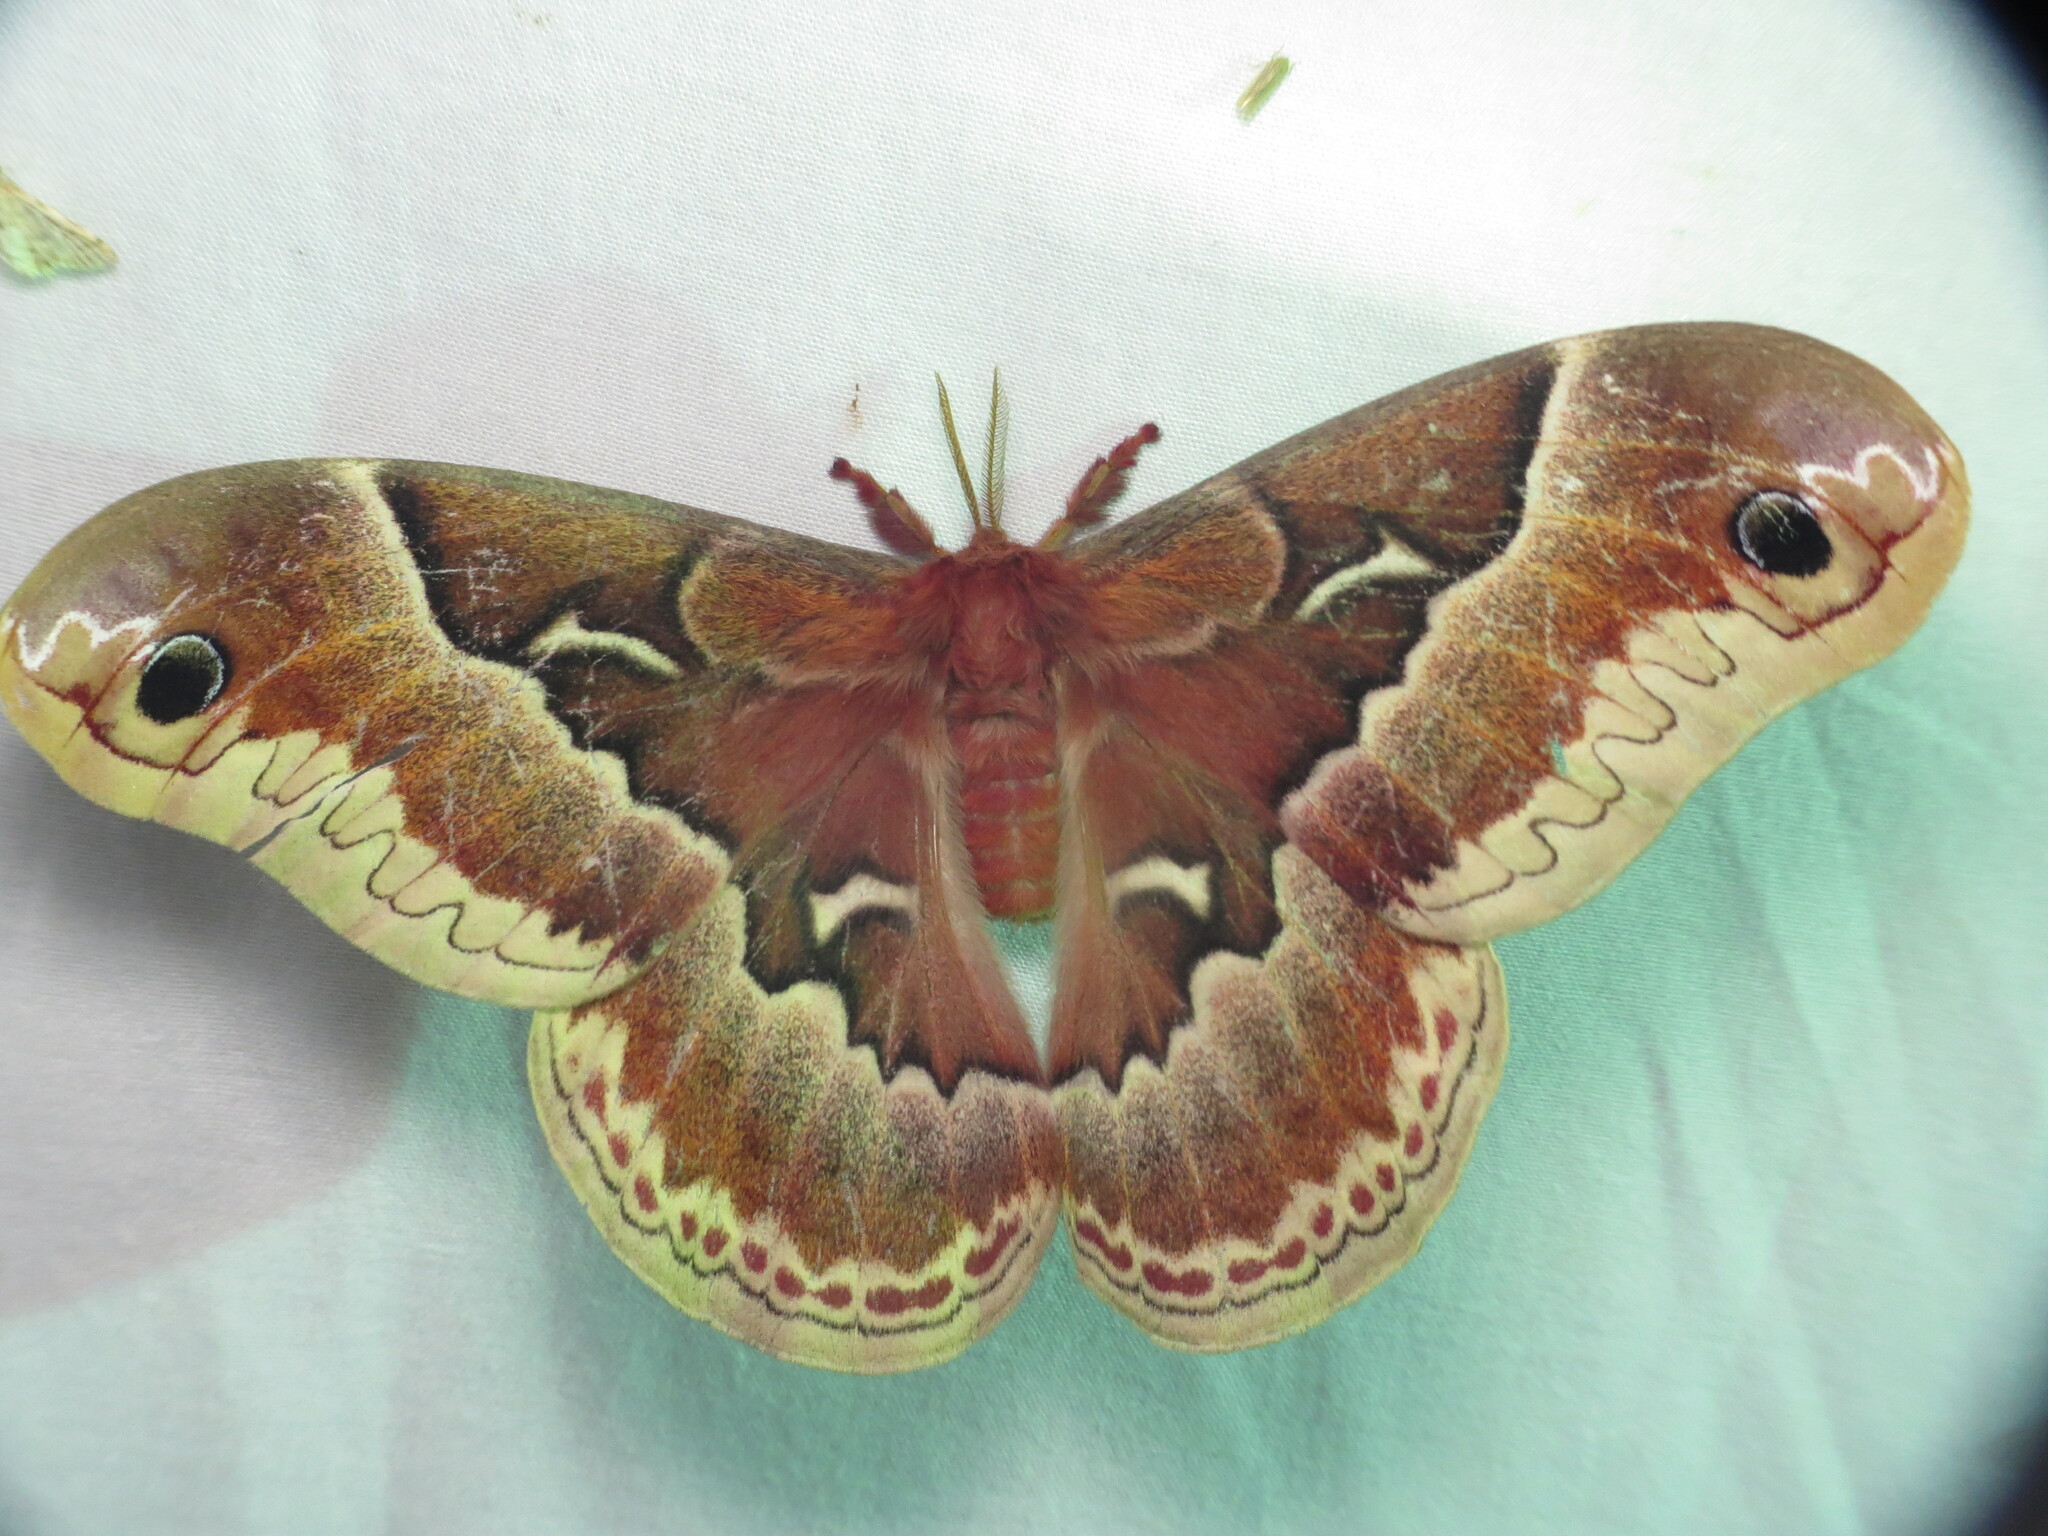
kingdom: Animalia
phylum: Arthropoda
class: Insecta
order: Lepidoptera
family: Saturniidae
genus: Callosamia
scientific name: Callosamia promethea
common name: Promethea silkmoth
